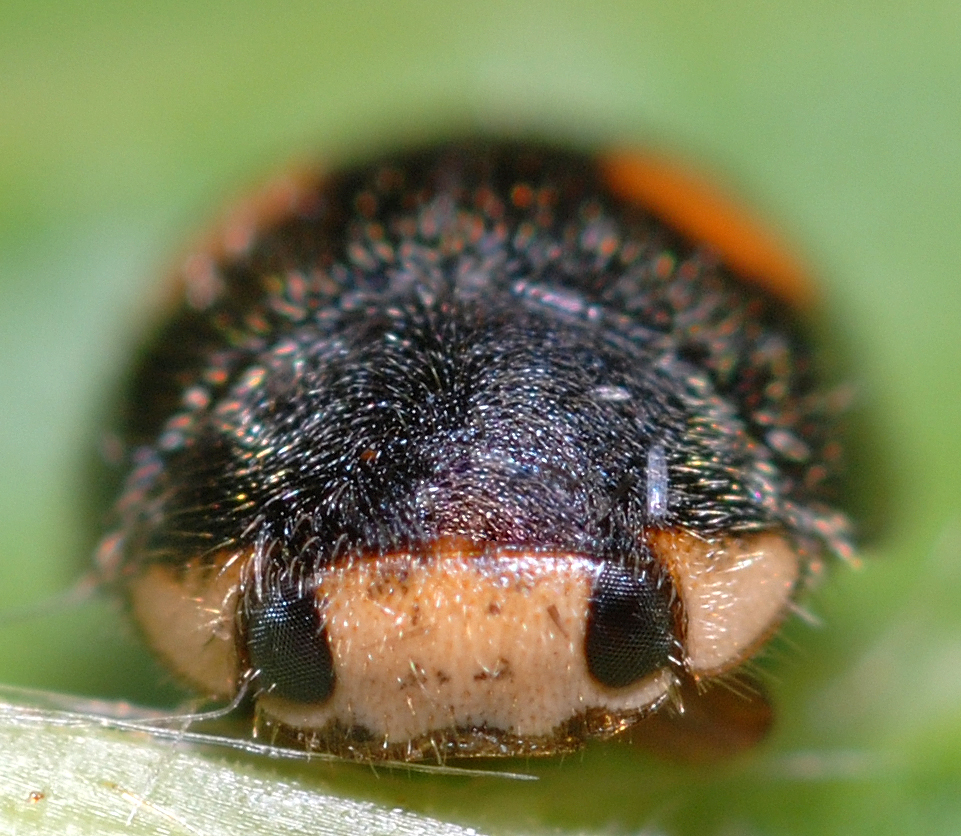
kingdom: Animalia
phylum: Arthropoda
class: Insecta
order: Coleoptera
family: Coccinellidae
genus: Platynaspis
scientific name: Platynaspis luteorubra
